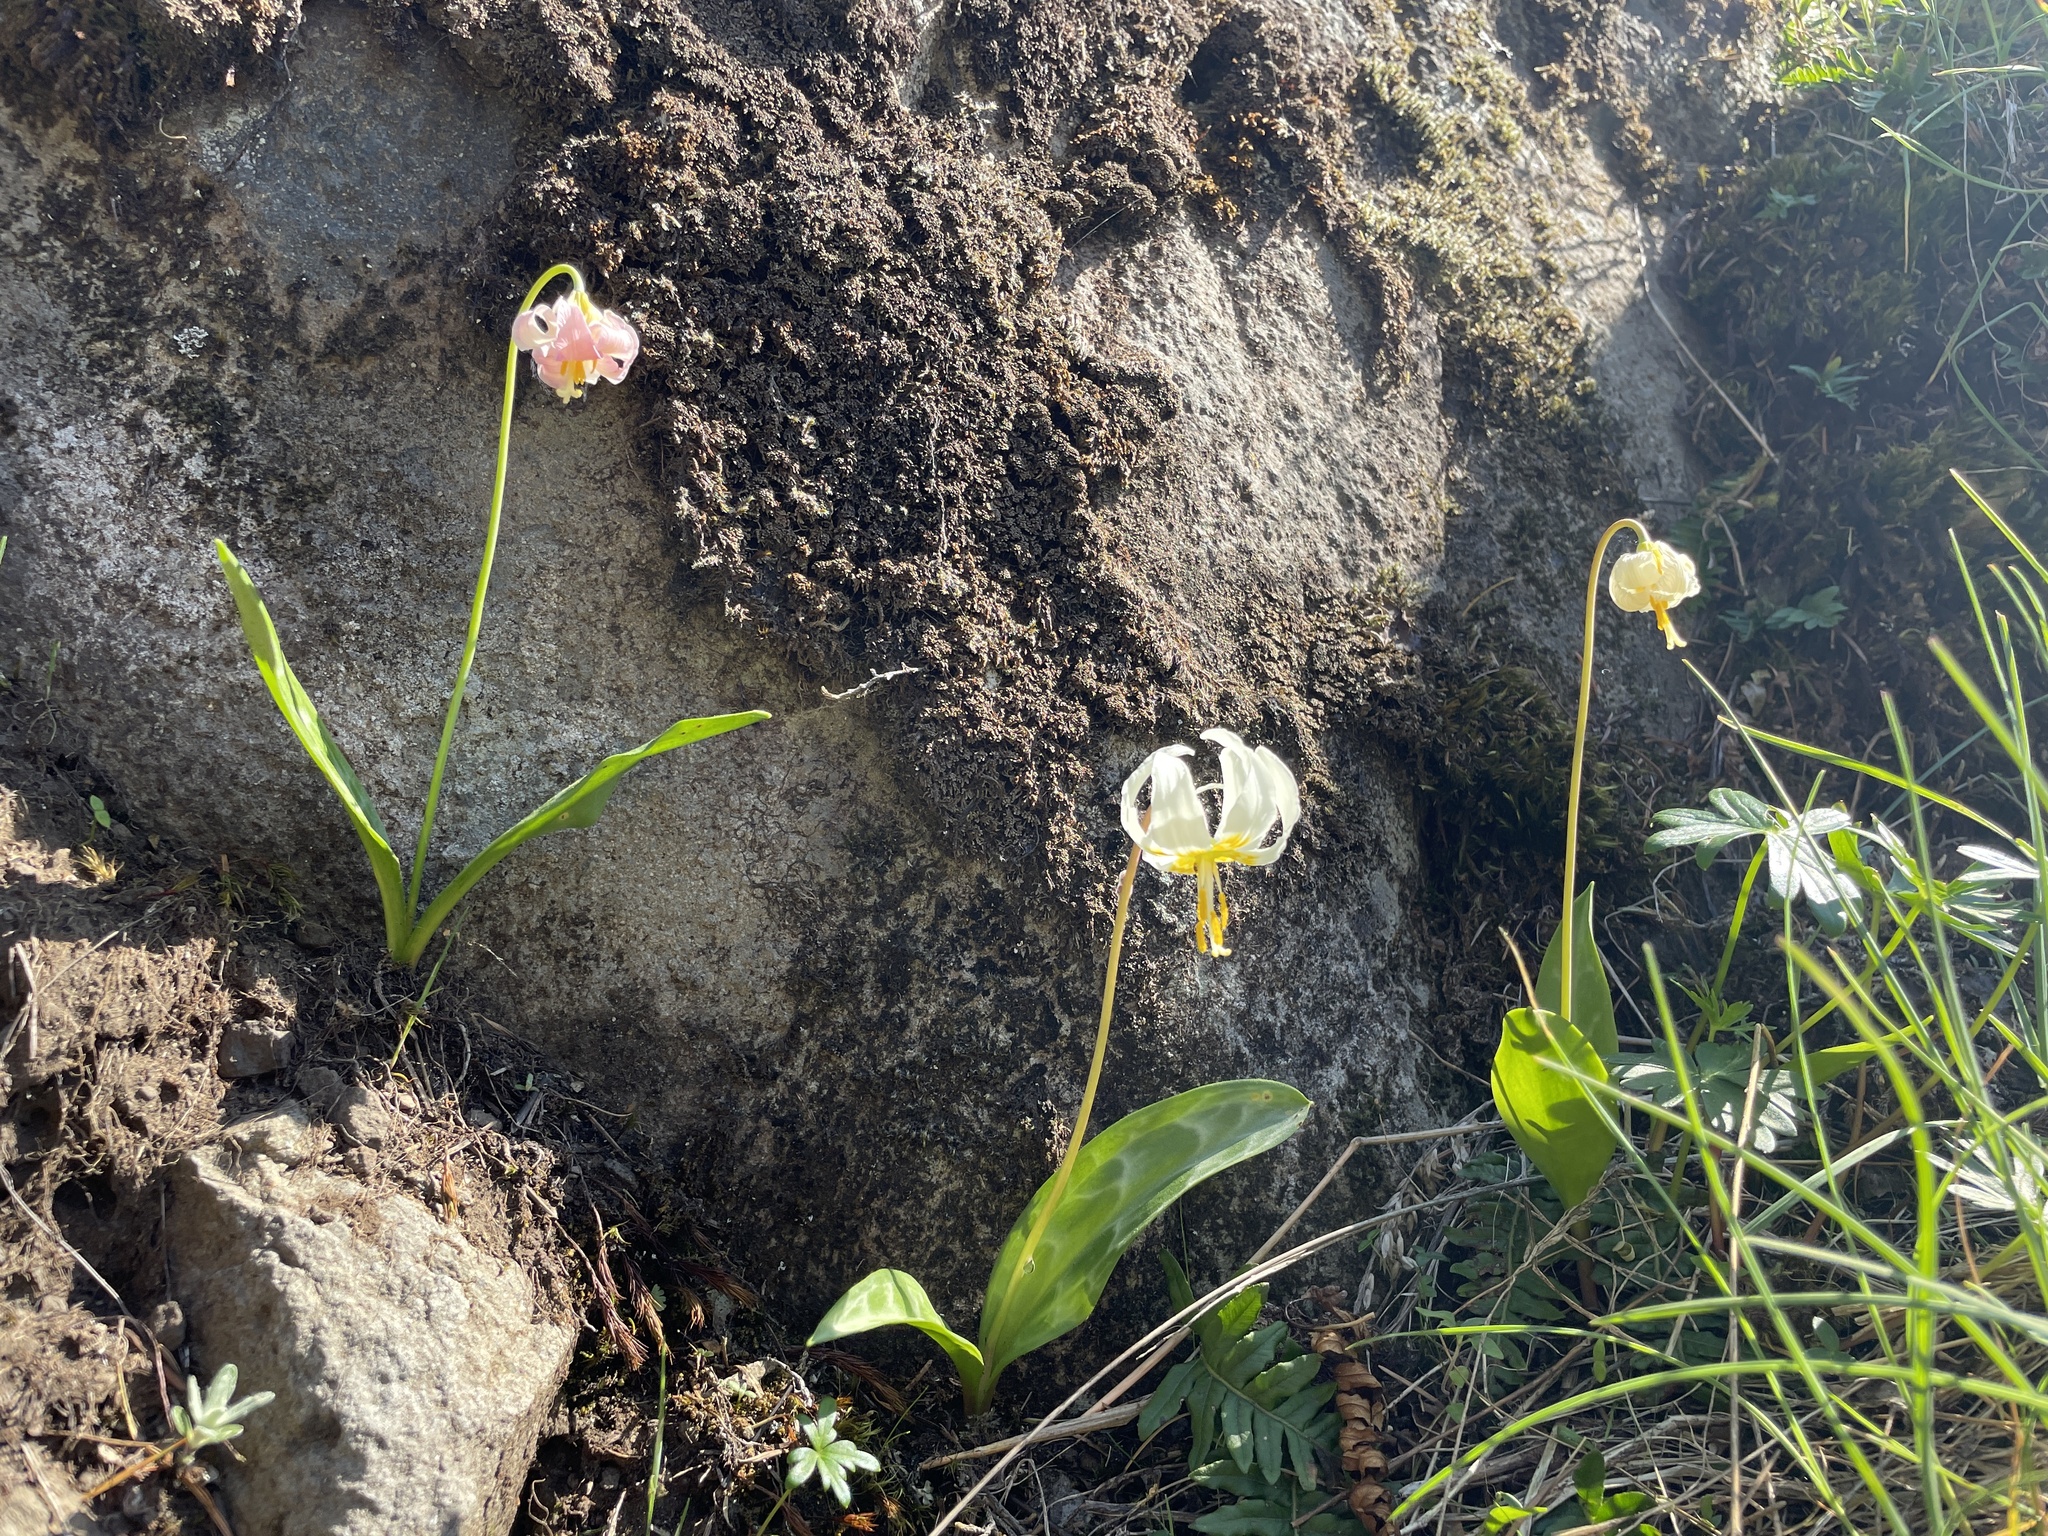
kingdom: Plantae
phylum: Tracheophyta
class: Liliopsida
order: Liliales
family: Liliaceae
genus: Erythronium
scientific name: Erythronium oregonum
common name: Giant adder's-tongue
